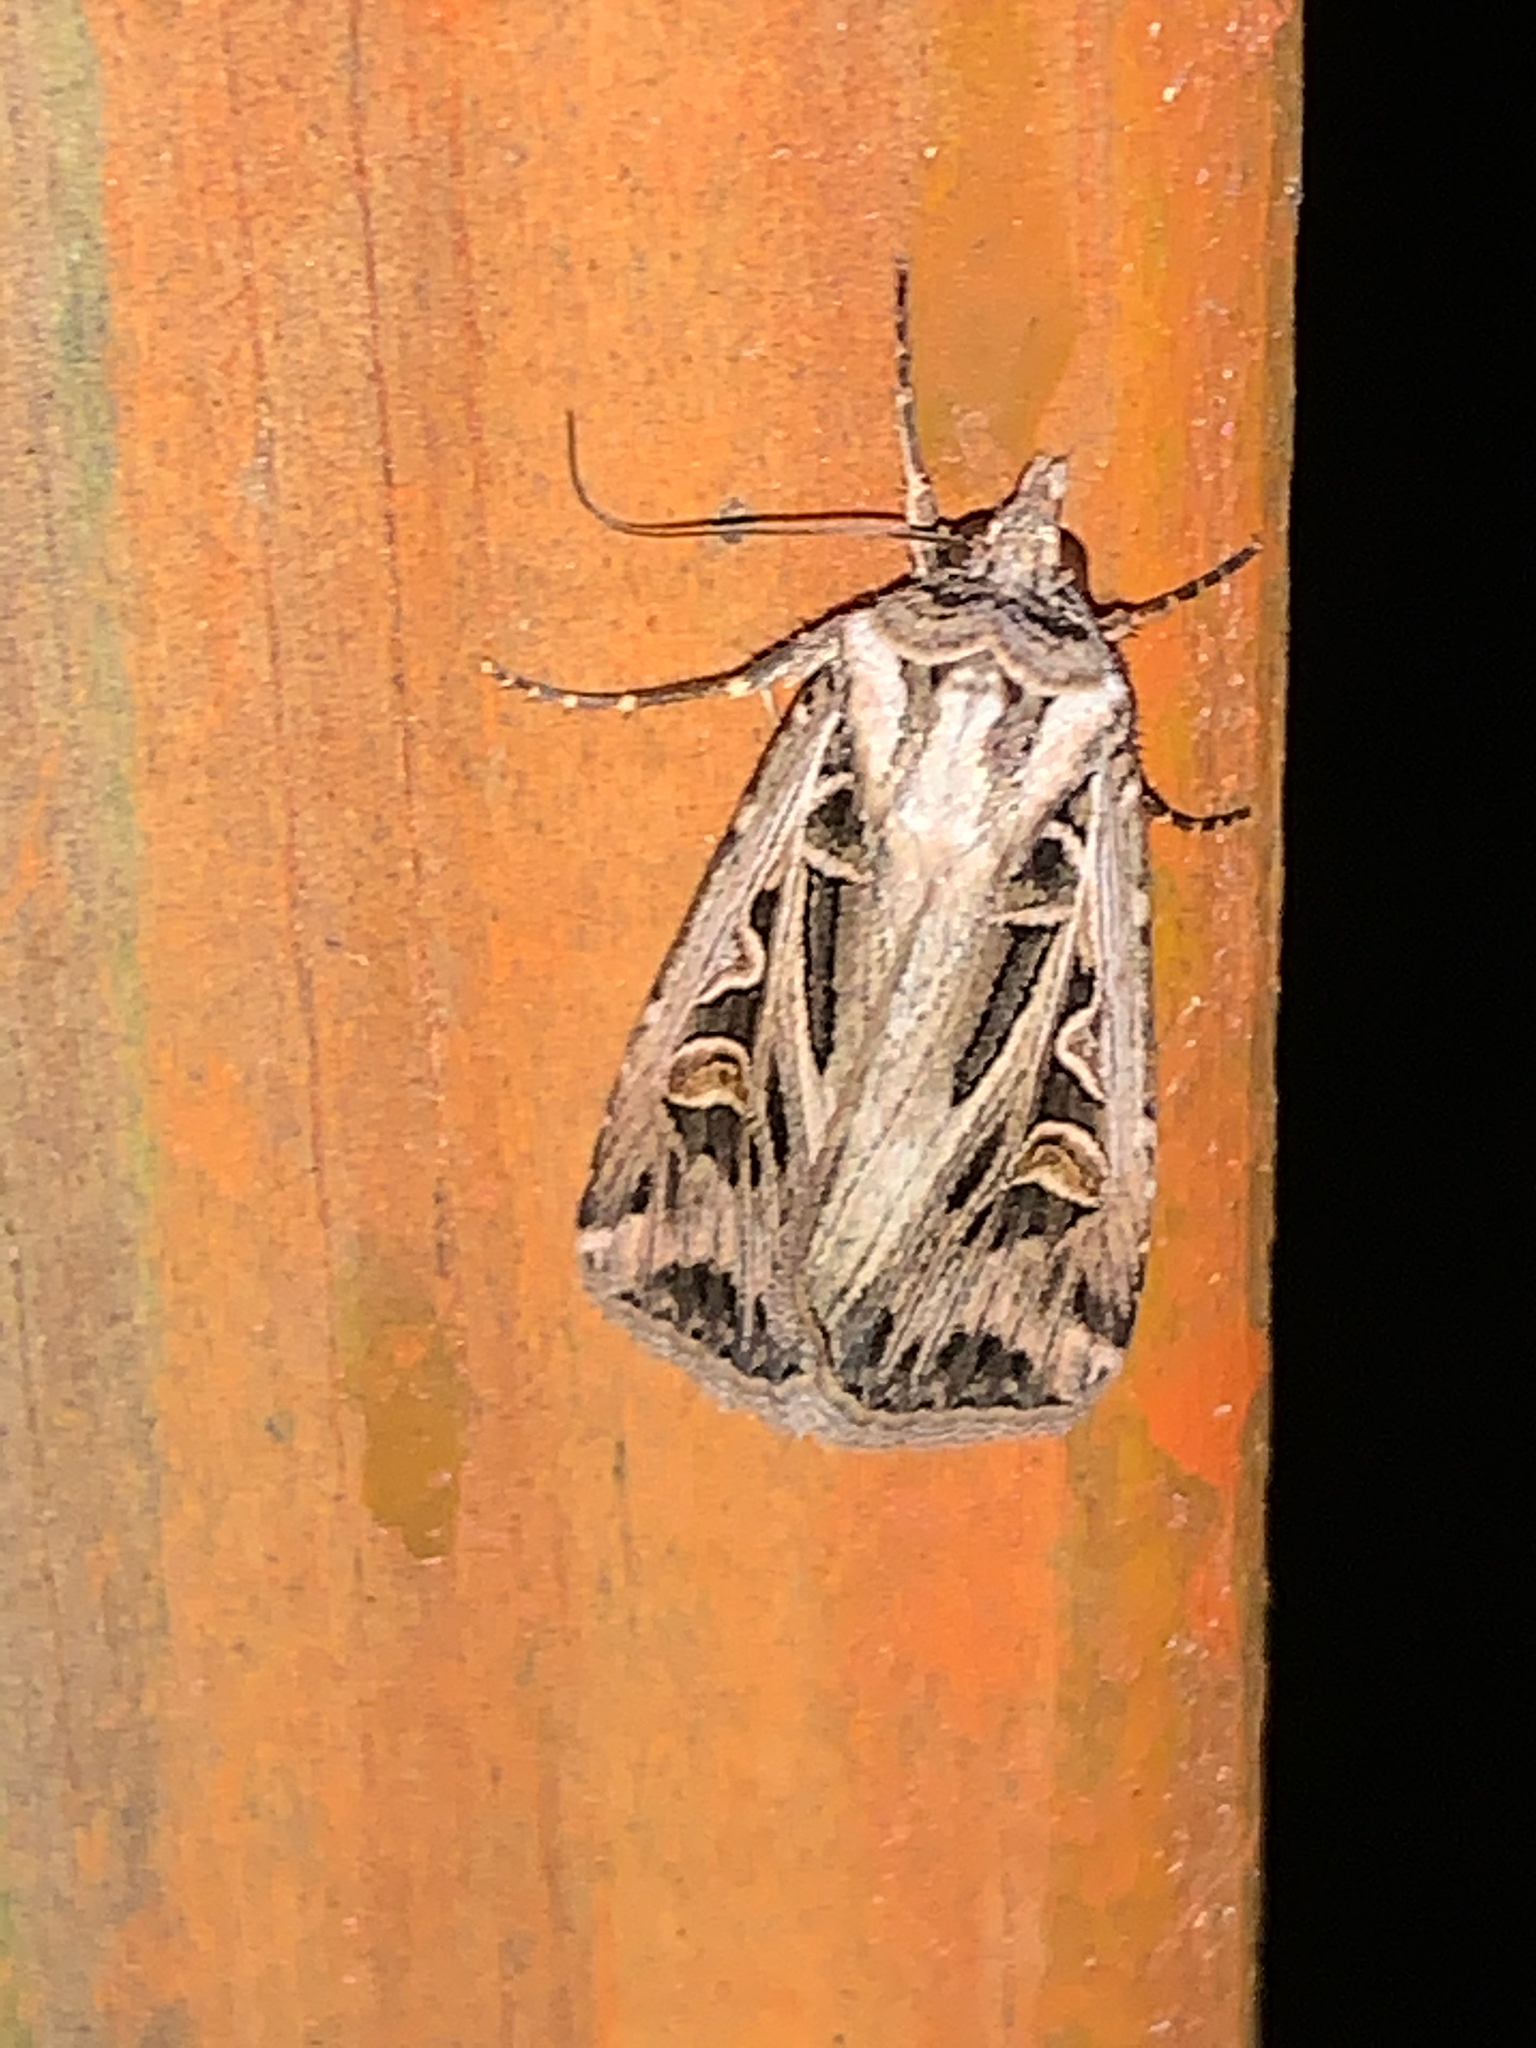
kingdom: Animalia
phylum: Arthropoda
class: Insecta
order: Lepidoptera
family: Noctuidae
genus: Feltia
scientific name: Feltia jaculifera
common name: Dingy cutworm moth
